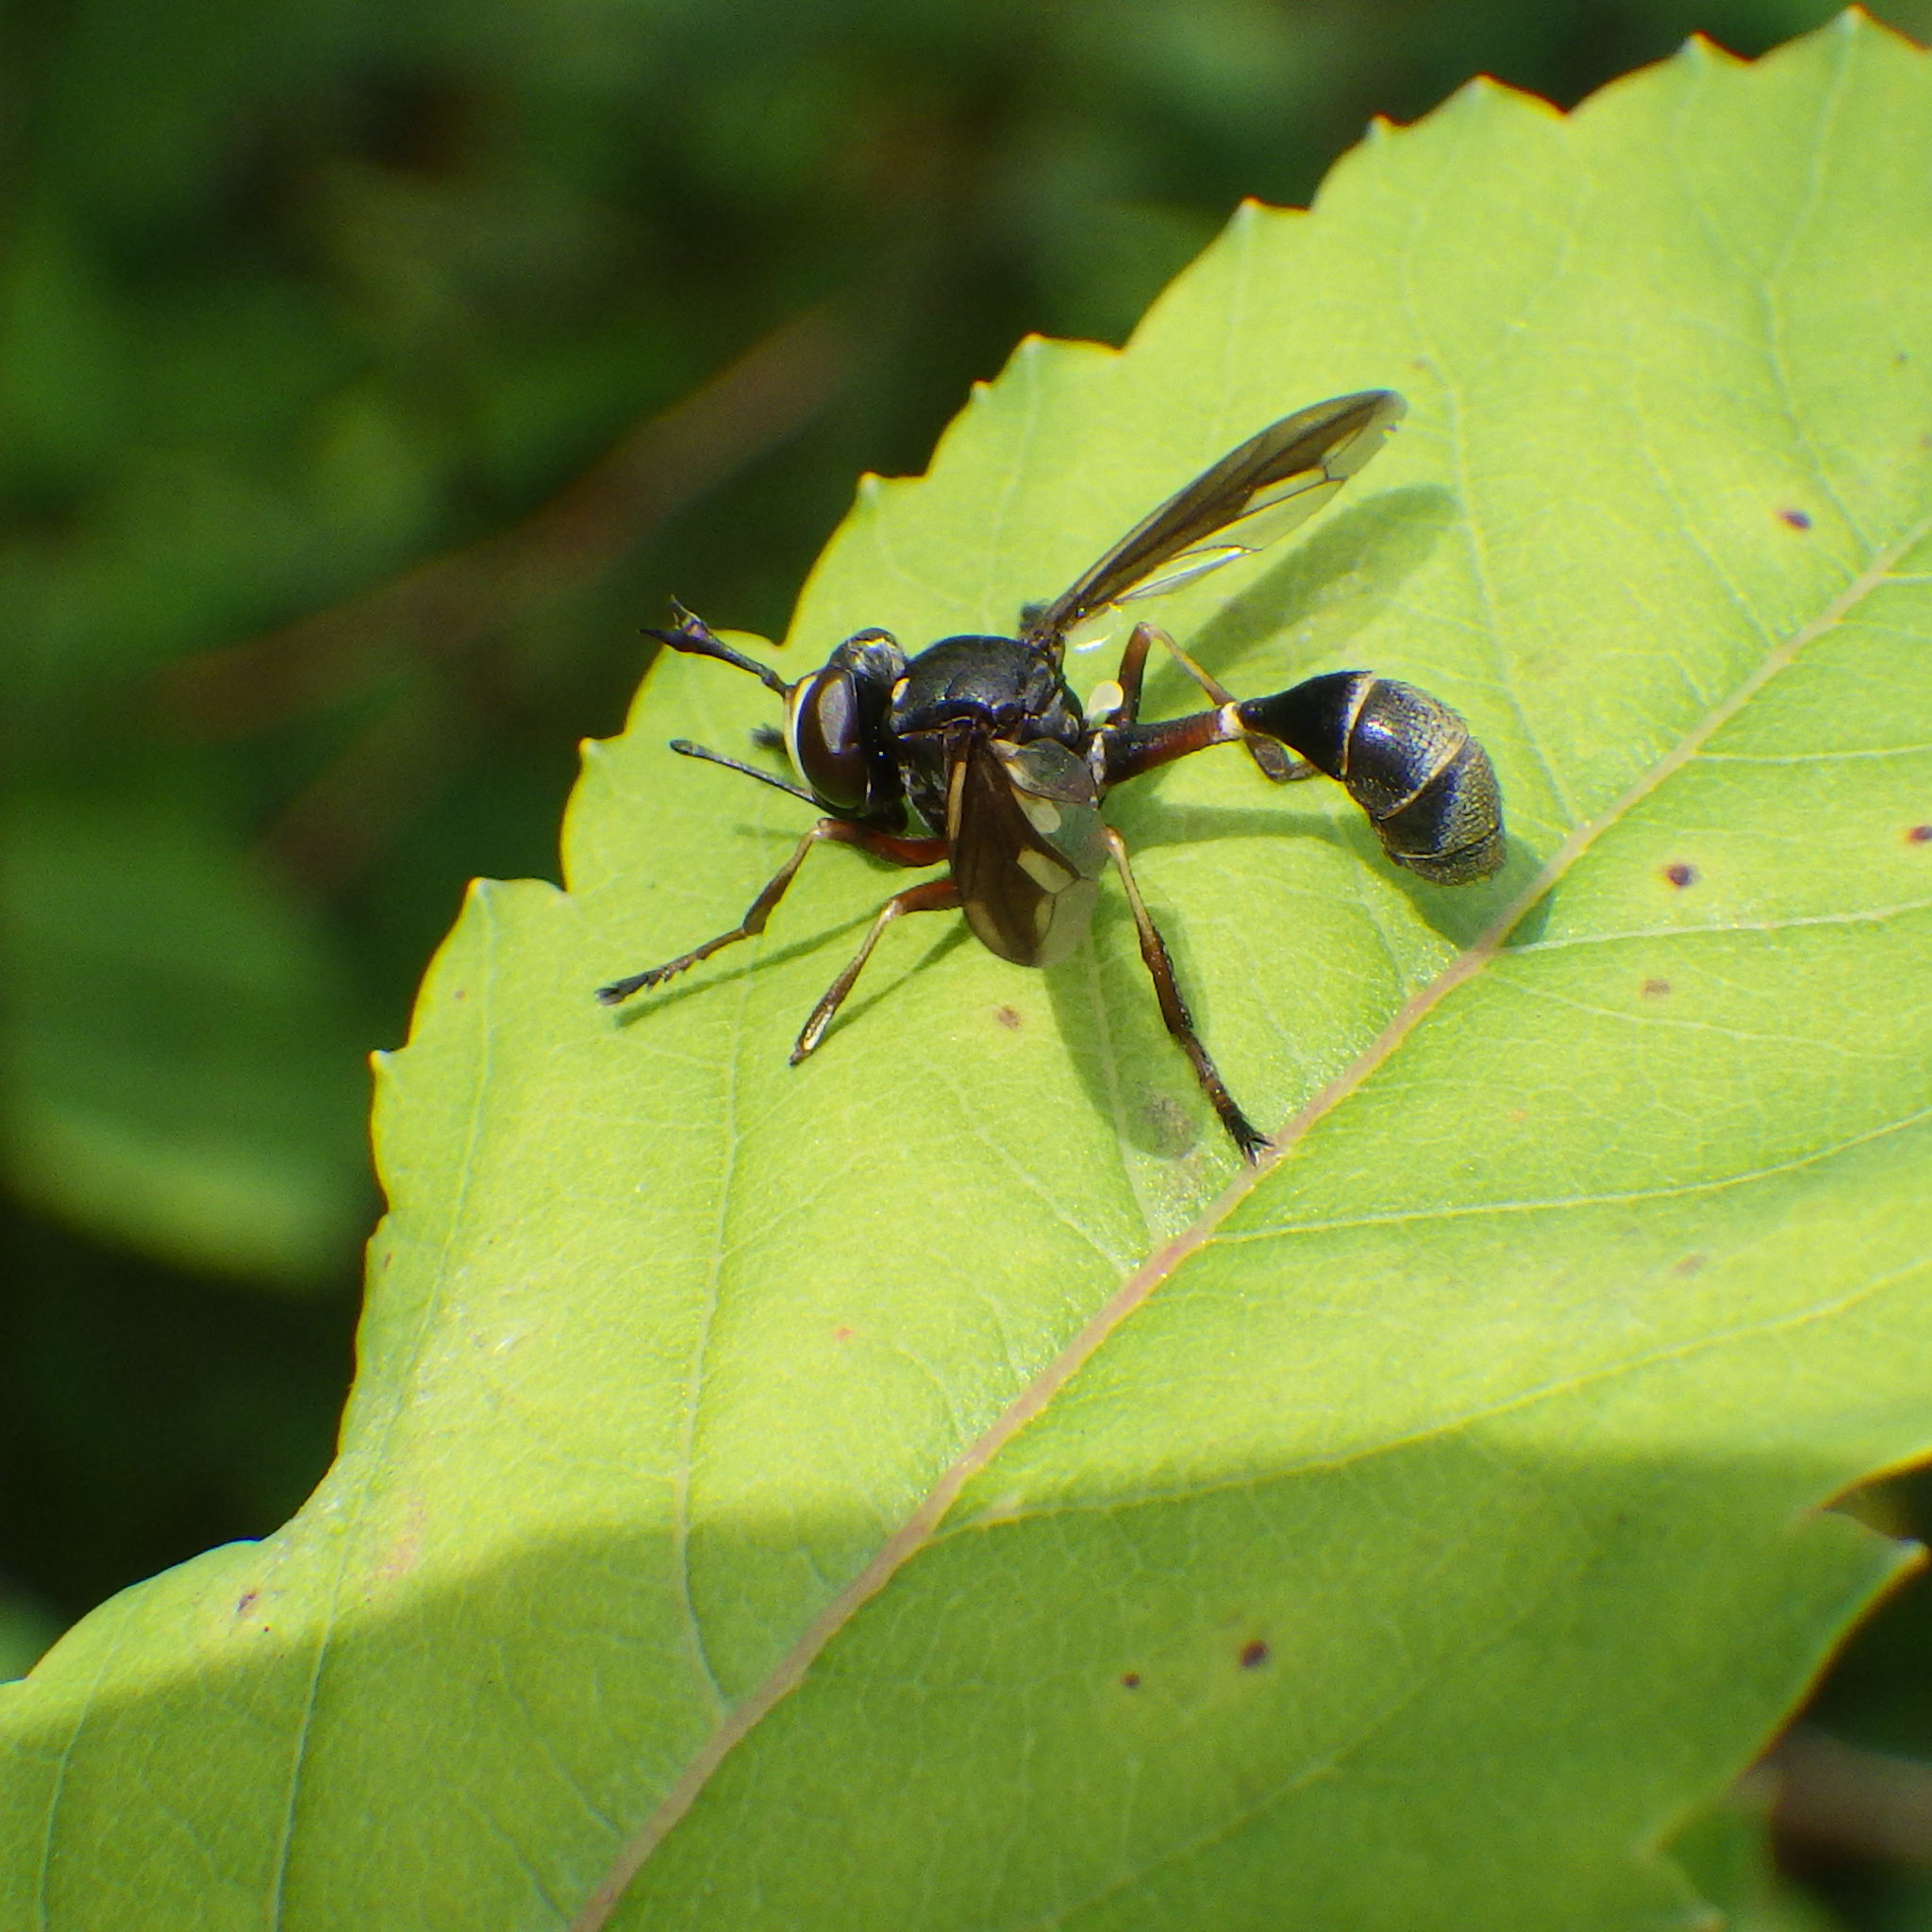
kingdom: Animalia
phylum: Arthropoda
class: Insecta
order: Diptera
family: Conopidae
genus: Physocephala
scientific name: Physocephala furcillata
